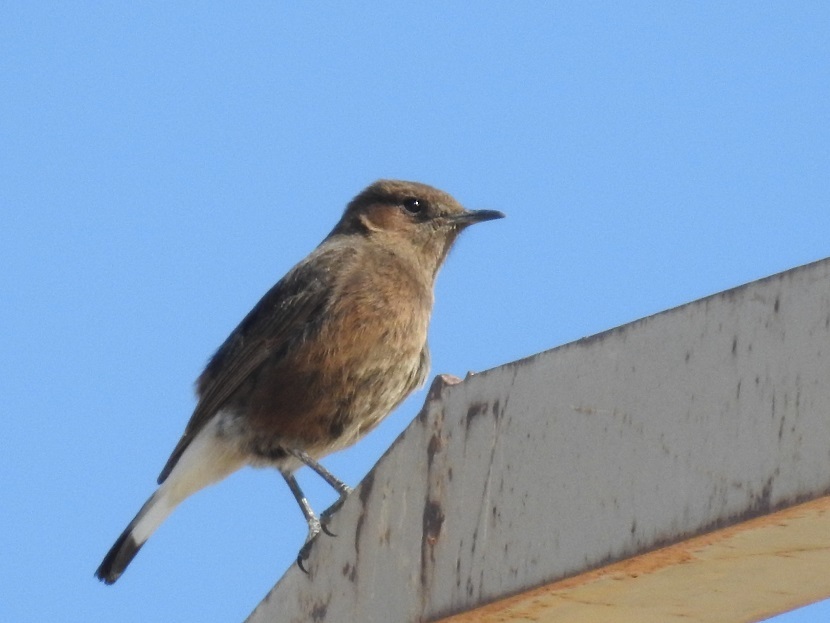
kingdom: Animalia
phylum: Chordata
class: Aves
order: Passeriformes
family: Muscicapidae
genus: Oenanthe
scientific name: Oenanthe leucura
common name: Black wheatear
